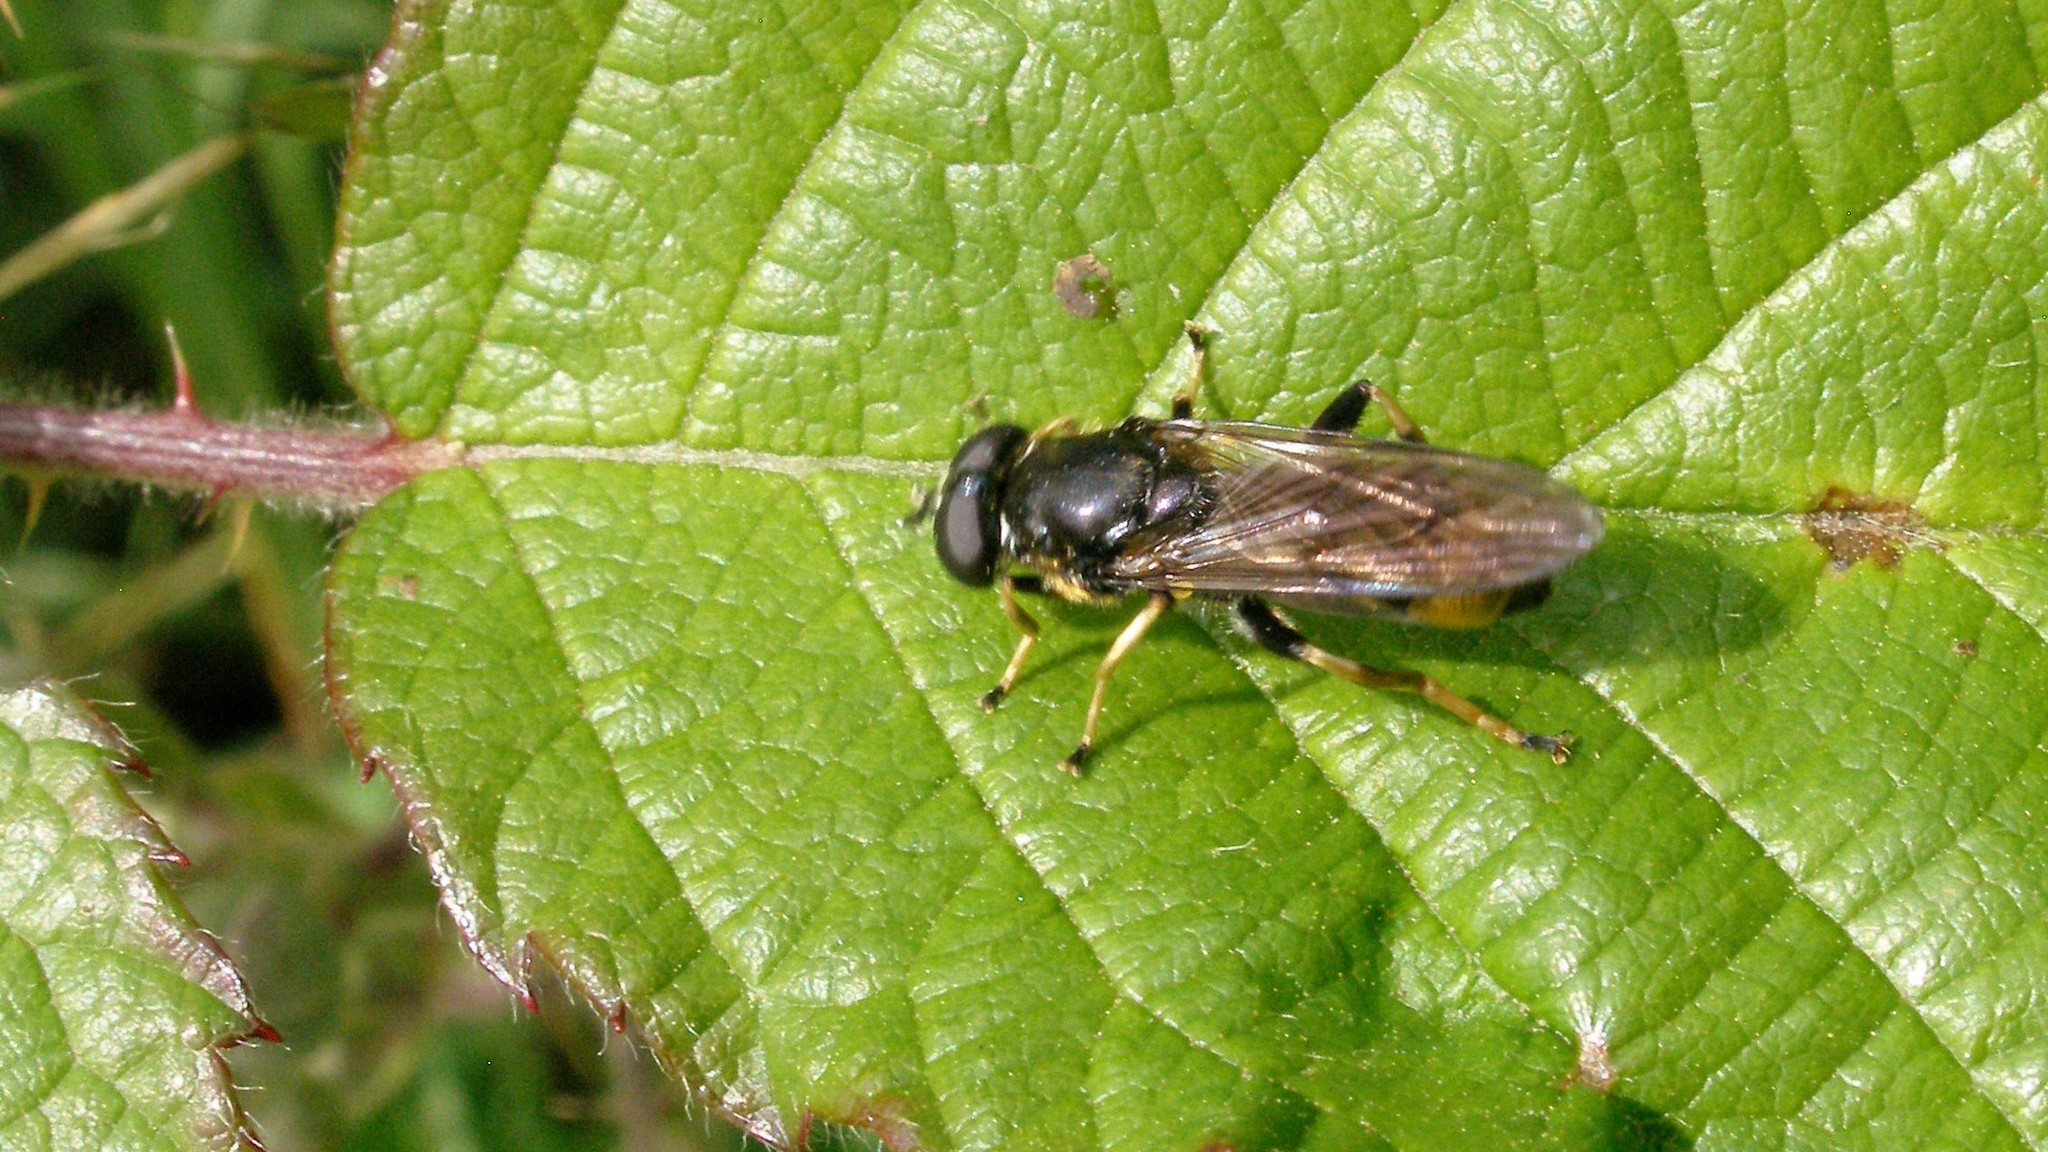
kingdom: Animalia
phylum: Arthropoda
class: Insecta
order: Diptera
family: Syrphidae
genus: Xylota
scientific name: Xylota sylvarum
